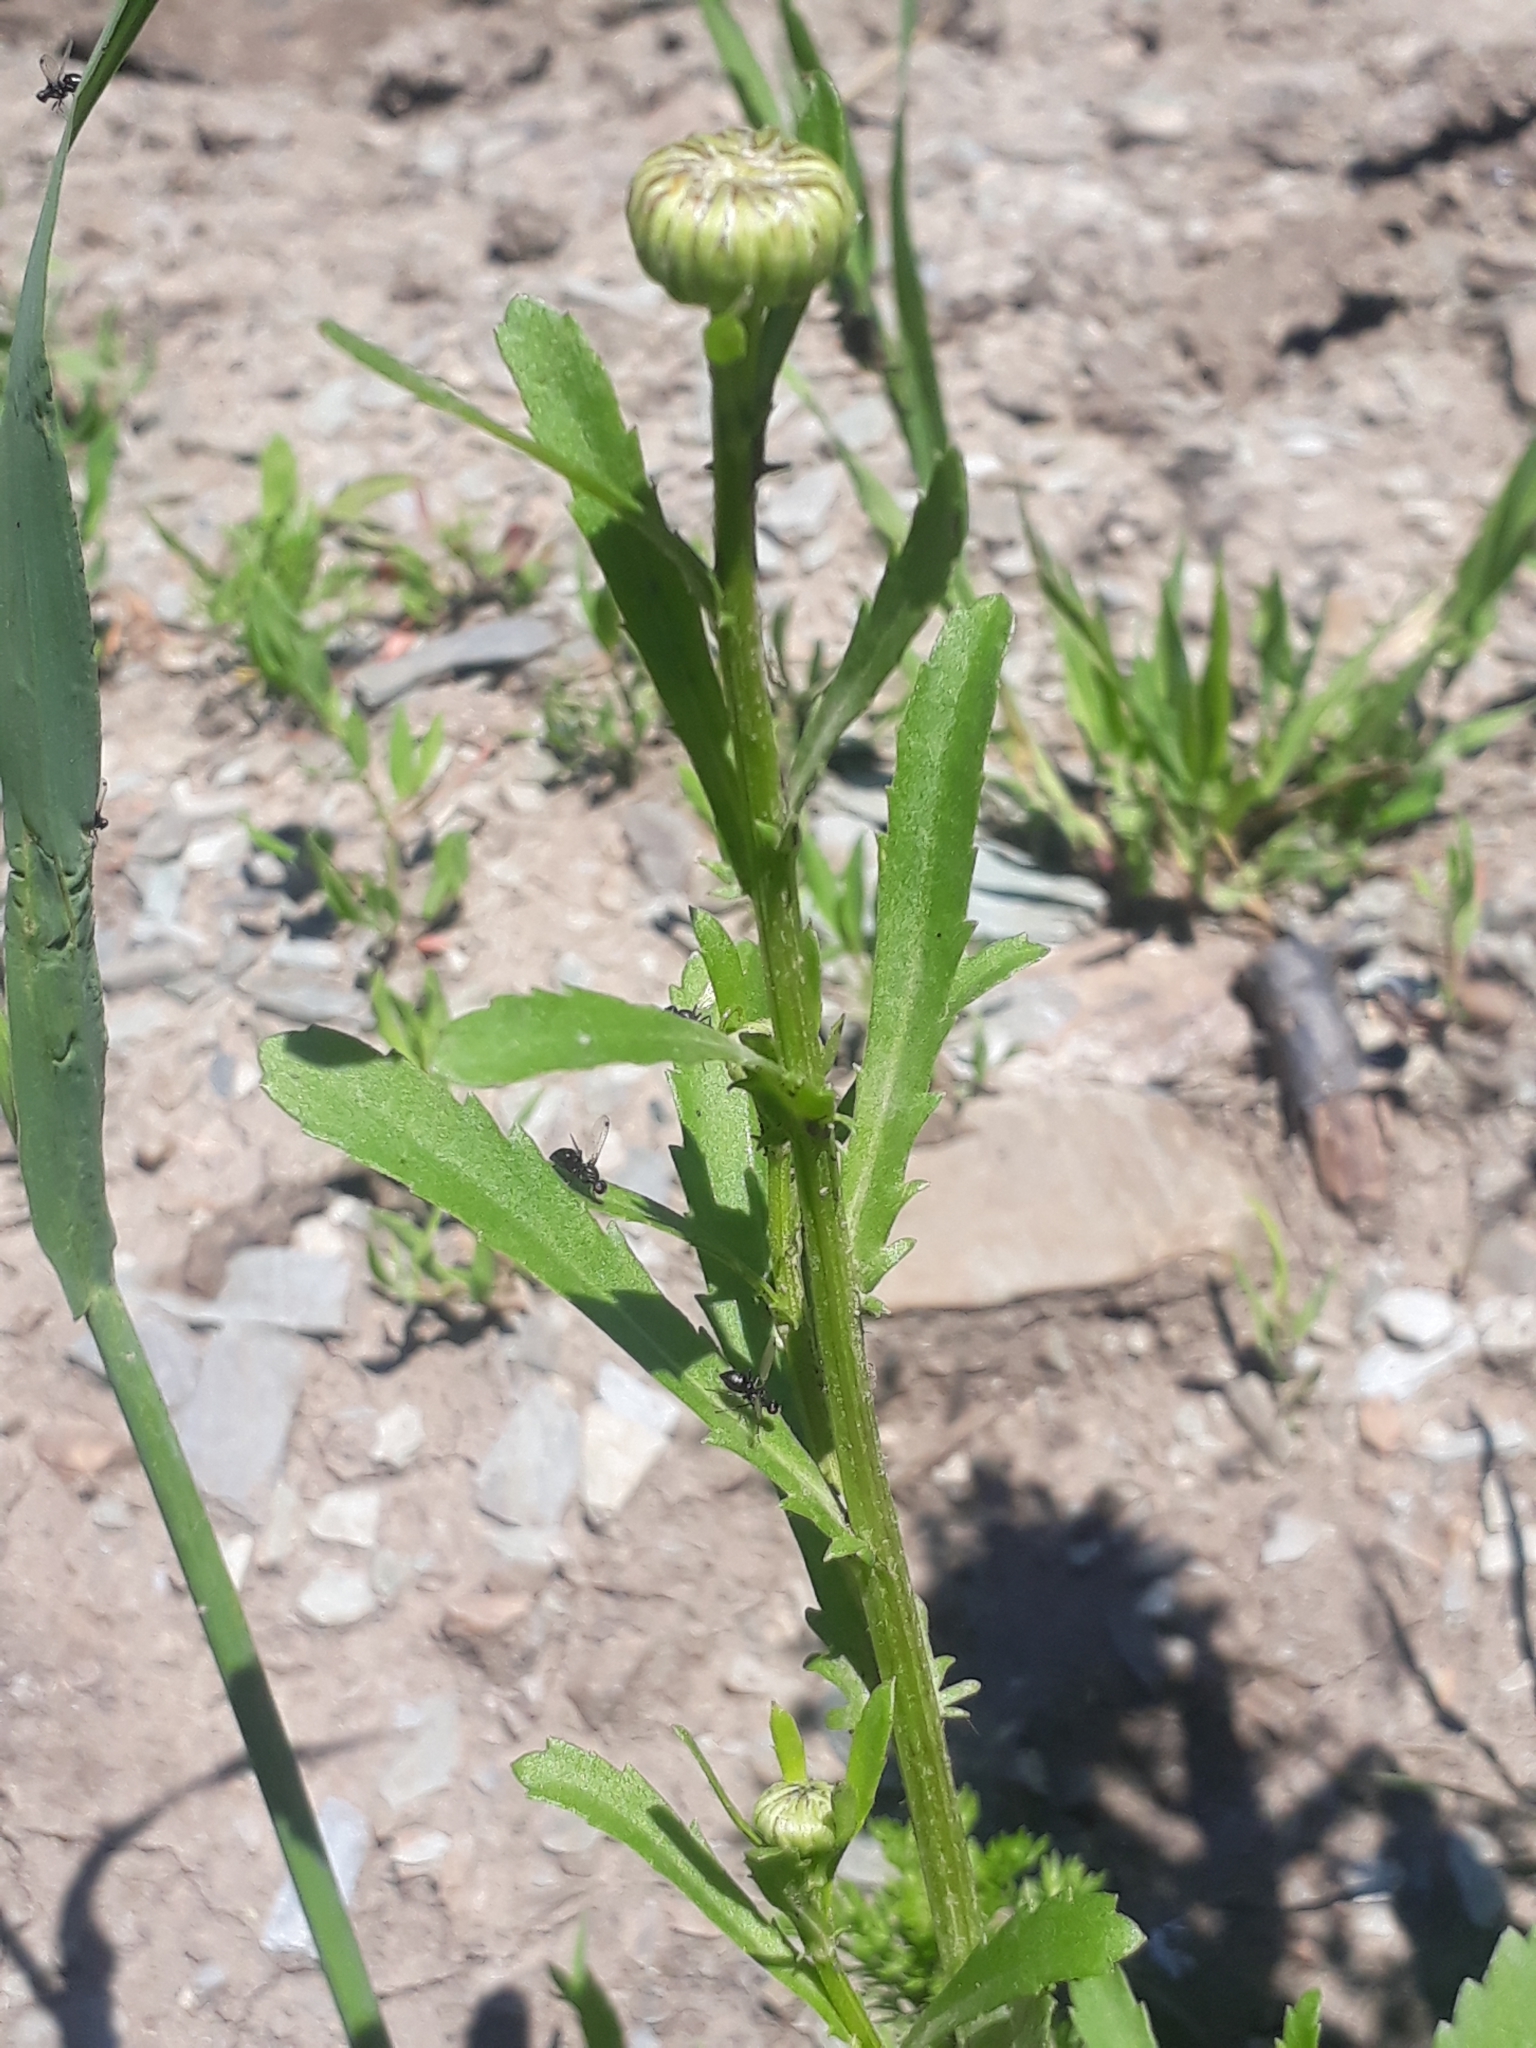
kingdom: Plantae
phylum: Tracheophyta
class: Magnoliopsida
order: Asterales
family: Asteraceae
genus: Leucanthemum
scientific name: Leucanthemum vulgare
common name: Oxeye daisy
